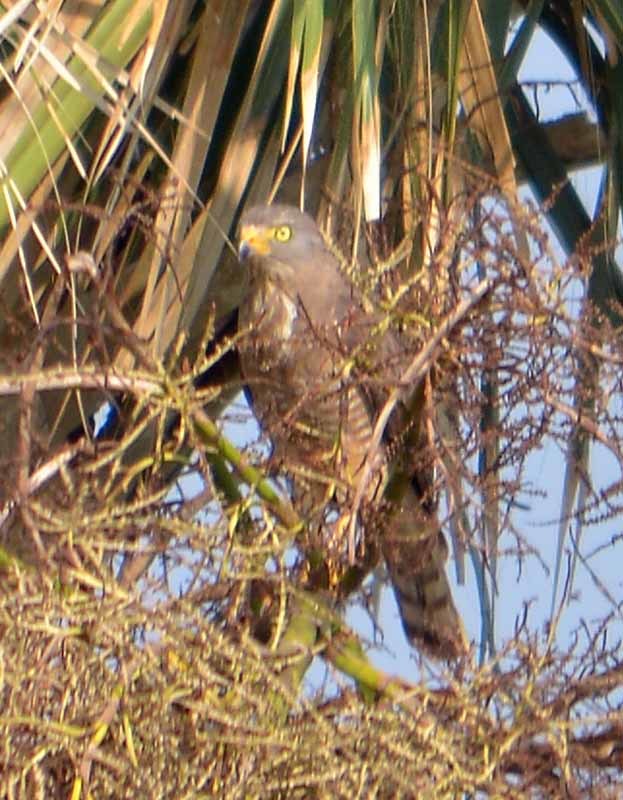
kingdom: Animalia
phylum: Chordata
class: Aves
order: Accipitriformes
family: Accipitridae
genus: Rupornis
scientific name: Rupornis magnirostris
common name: Roadside hawk
